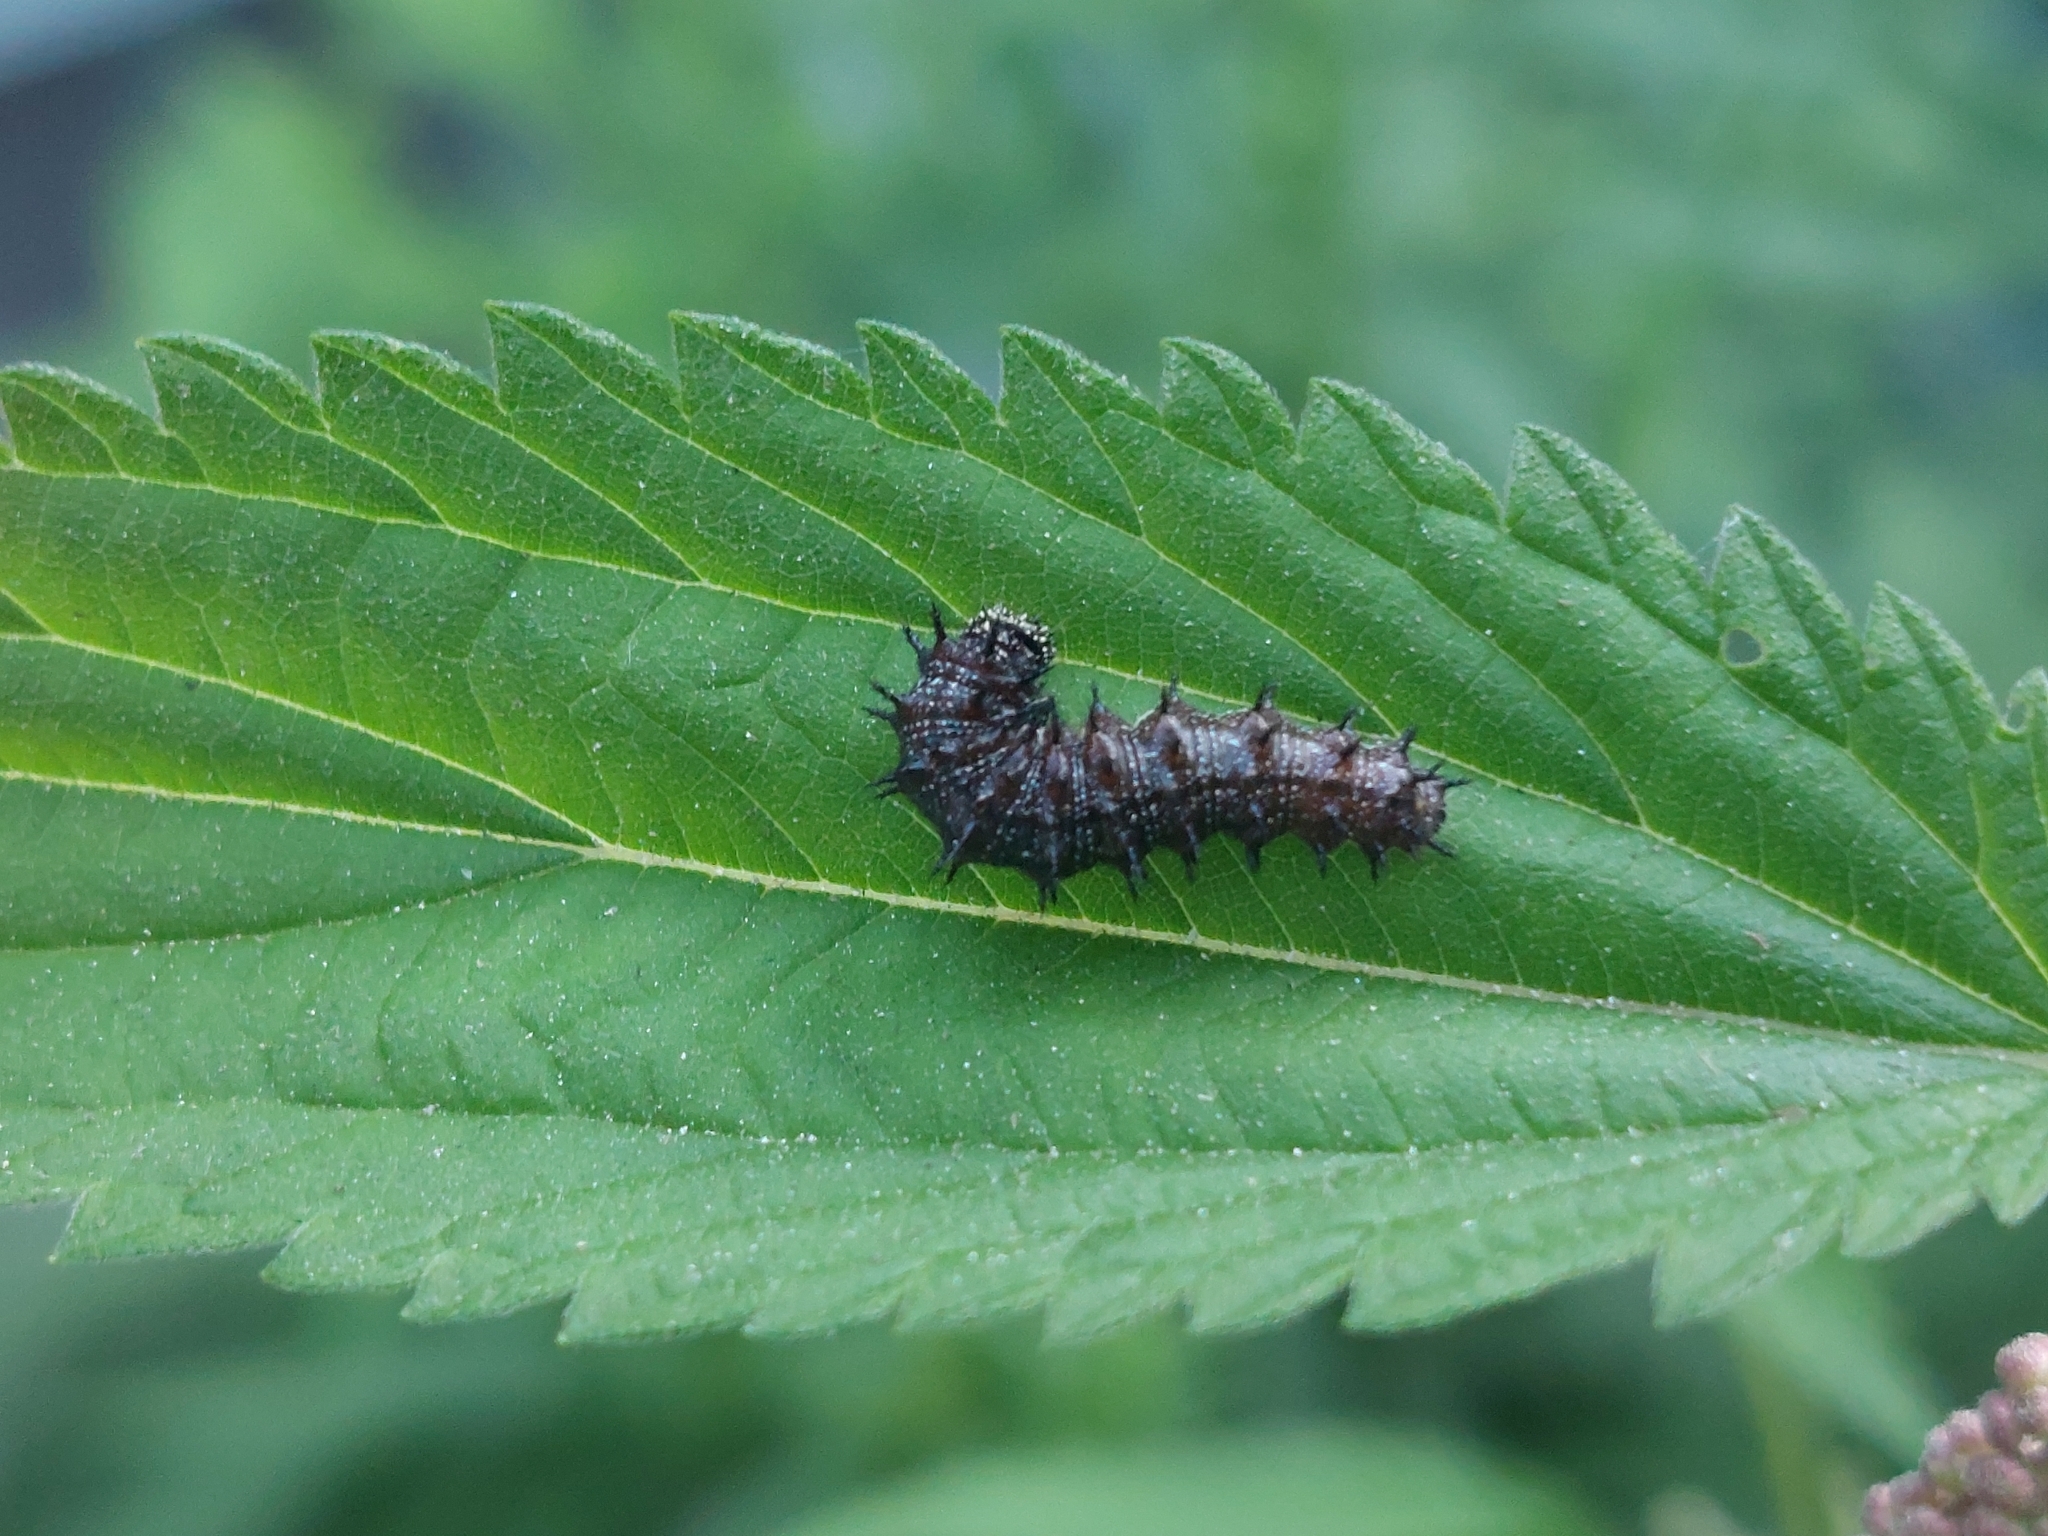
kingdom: Animalia
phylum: Arthropoda
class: Insecta
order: Lepidoptera
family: Nymphalidae
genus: Vanessa
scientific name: Vanessa atalanta
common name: Red admiral
